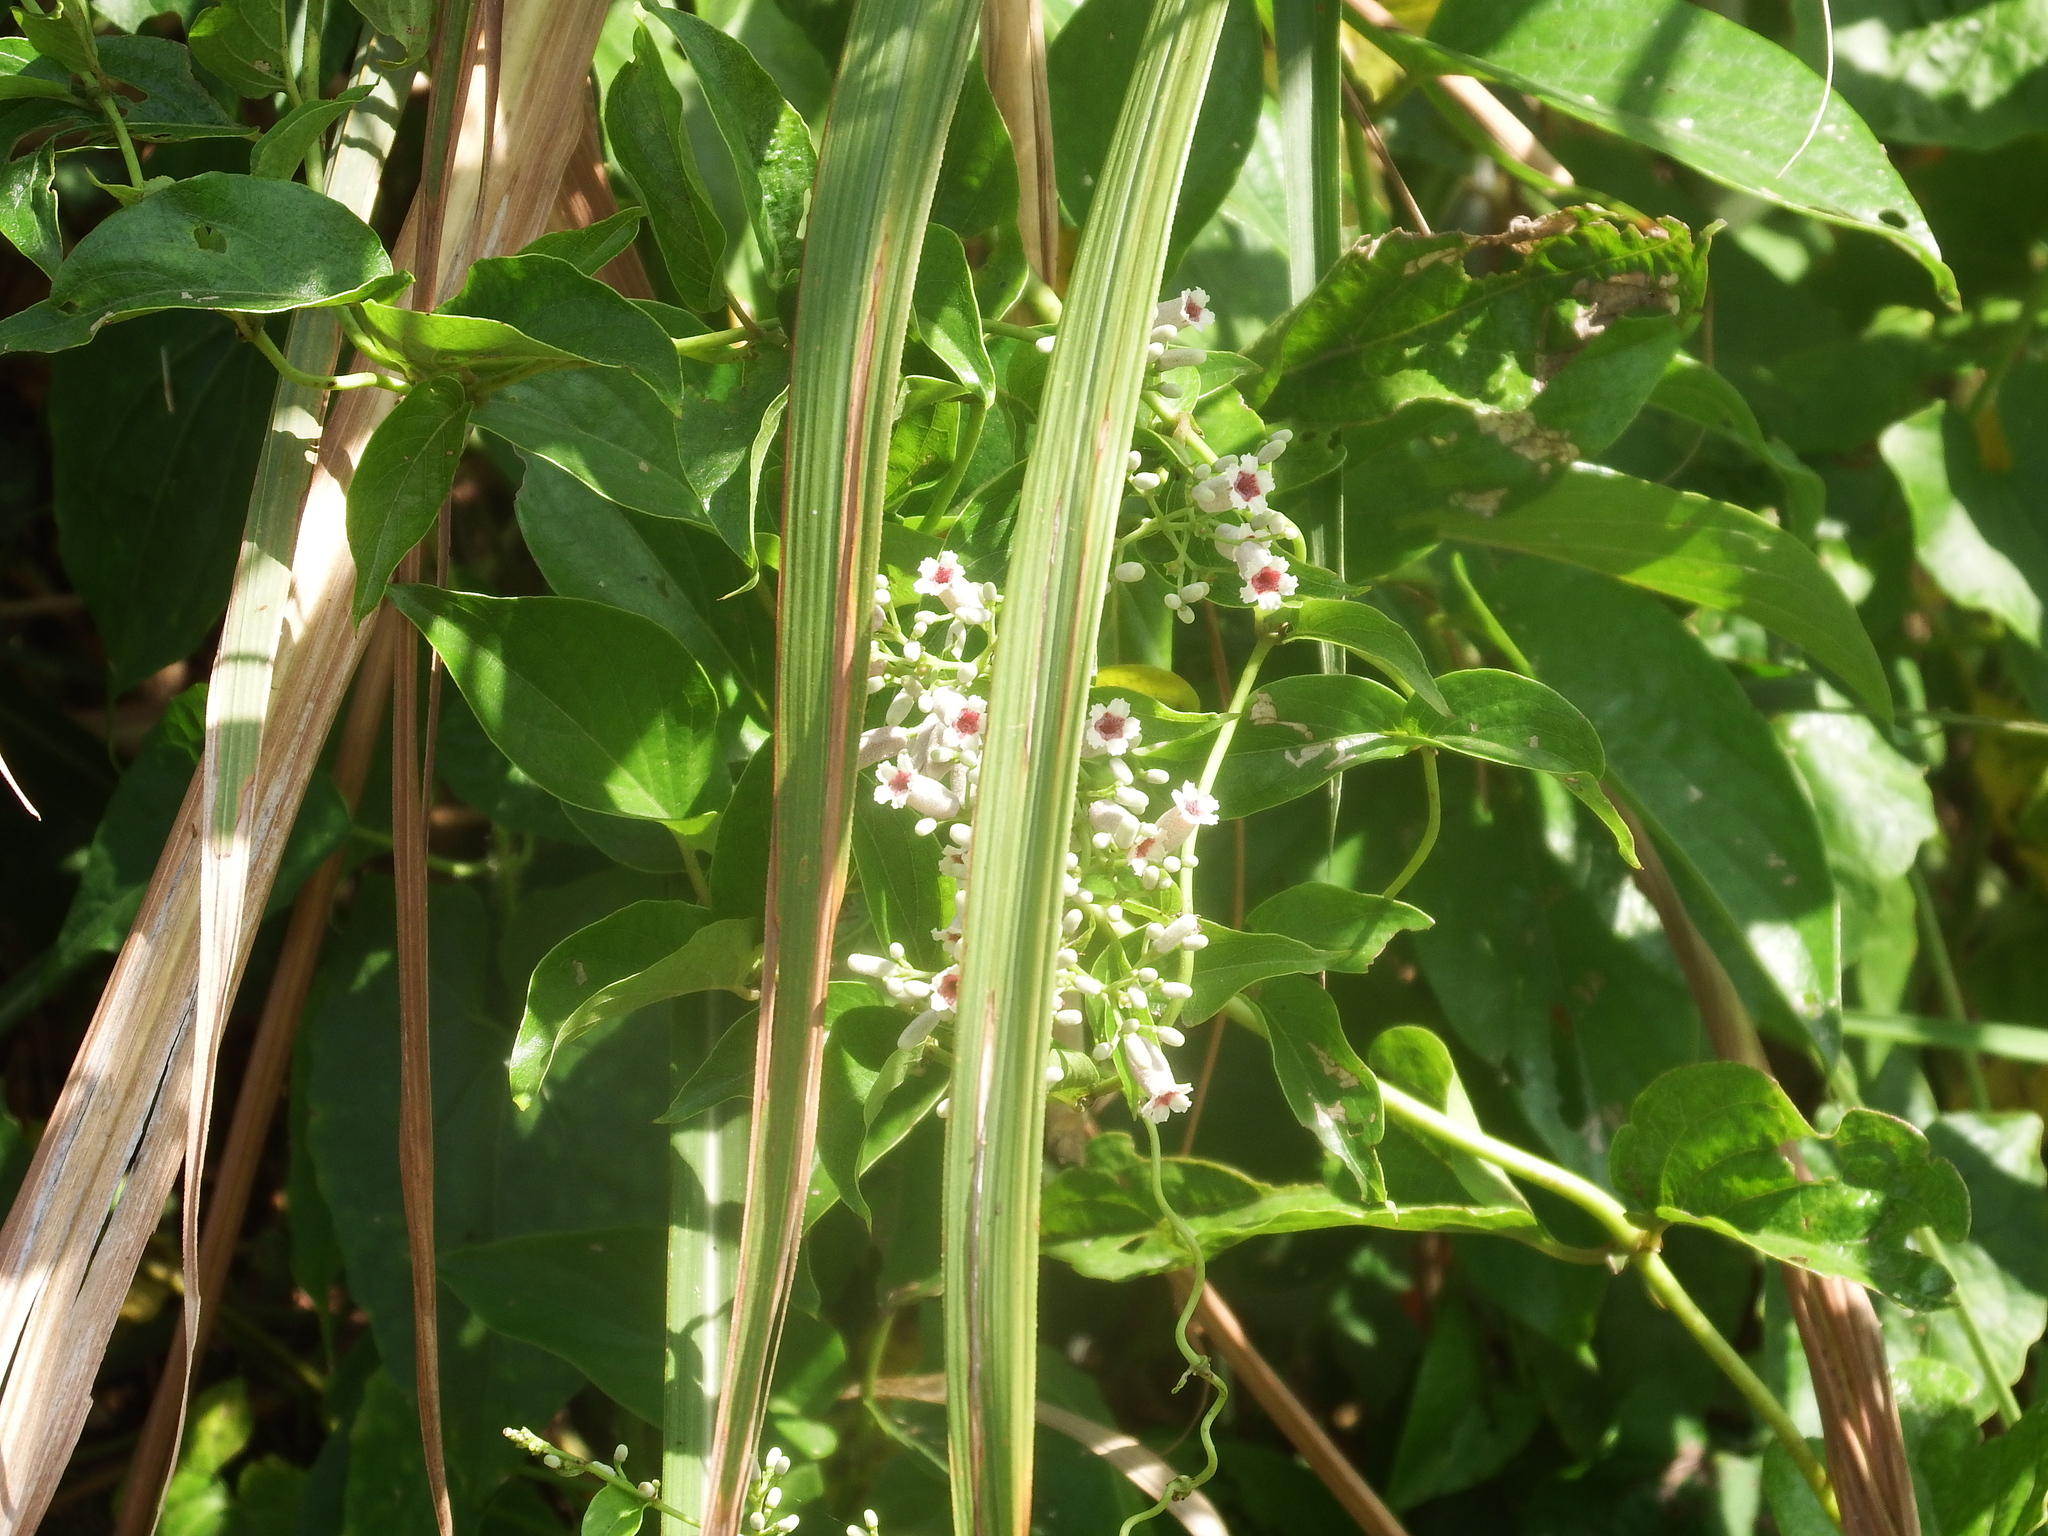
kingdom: Plantae
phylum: Tracheophyta
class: Magnoliopsida
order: Gentianales
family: Rubiaceae
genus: Paederia
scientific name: Paederia foetida
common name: Stinkvine
